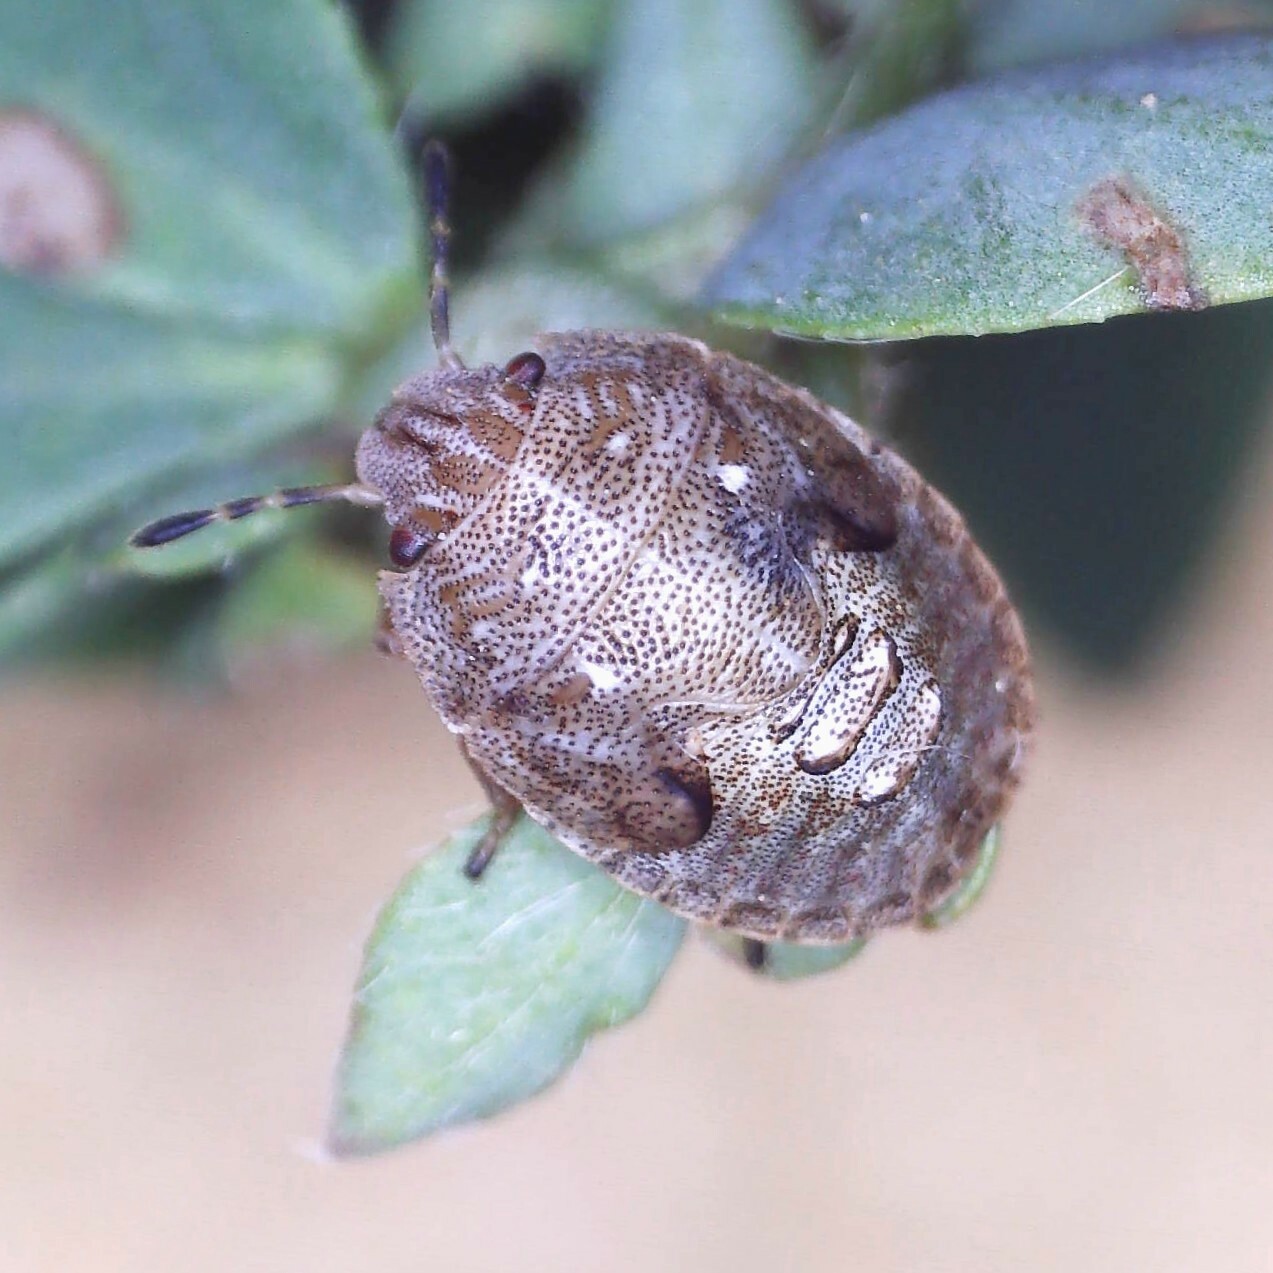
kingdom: Animalia
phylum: Arthropoda
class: Insecta
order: Hemiptera
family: Pentatomidae
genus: Podops
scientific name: Podops inunctus
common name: Turtle bug
